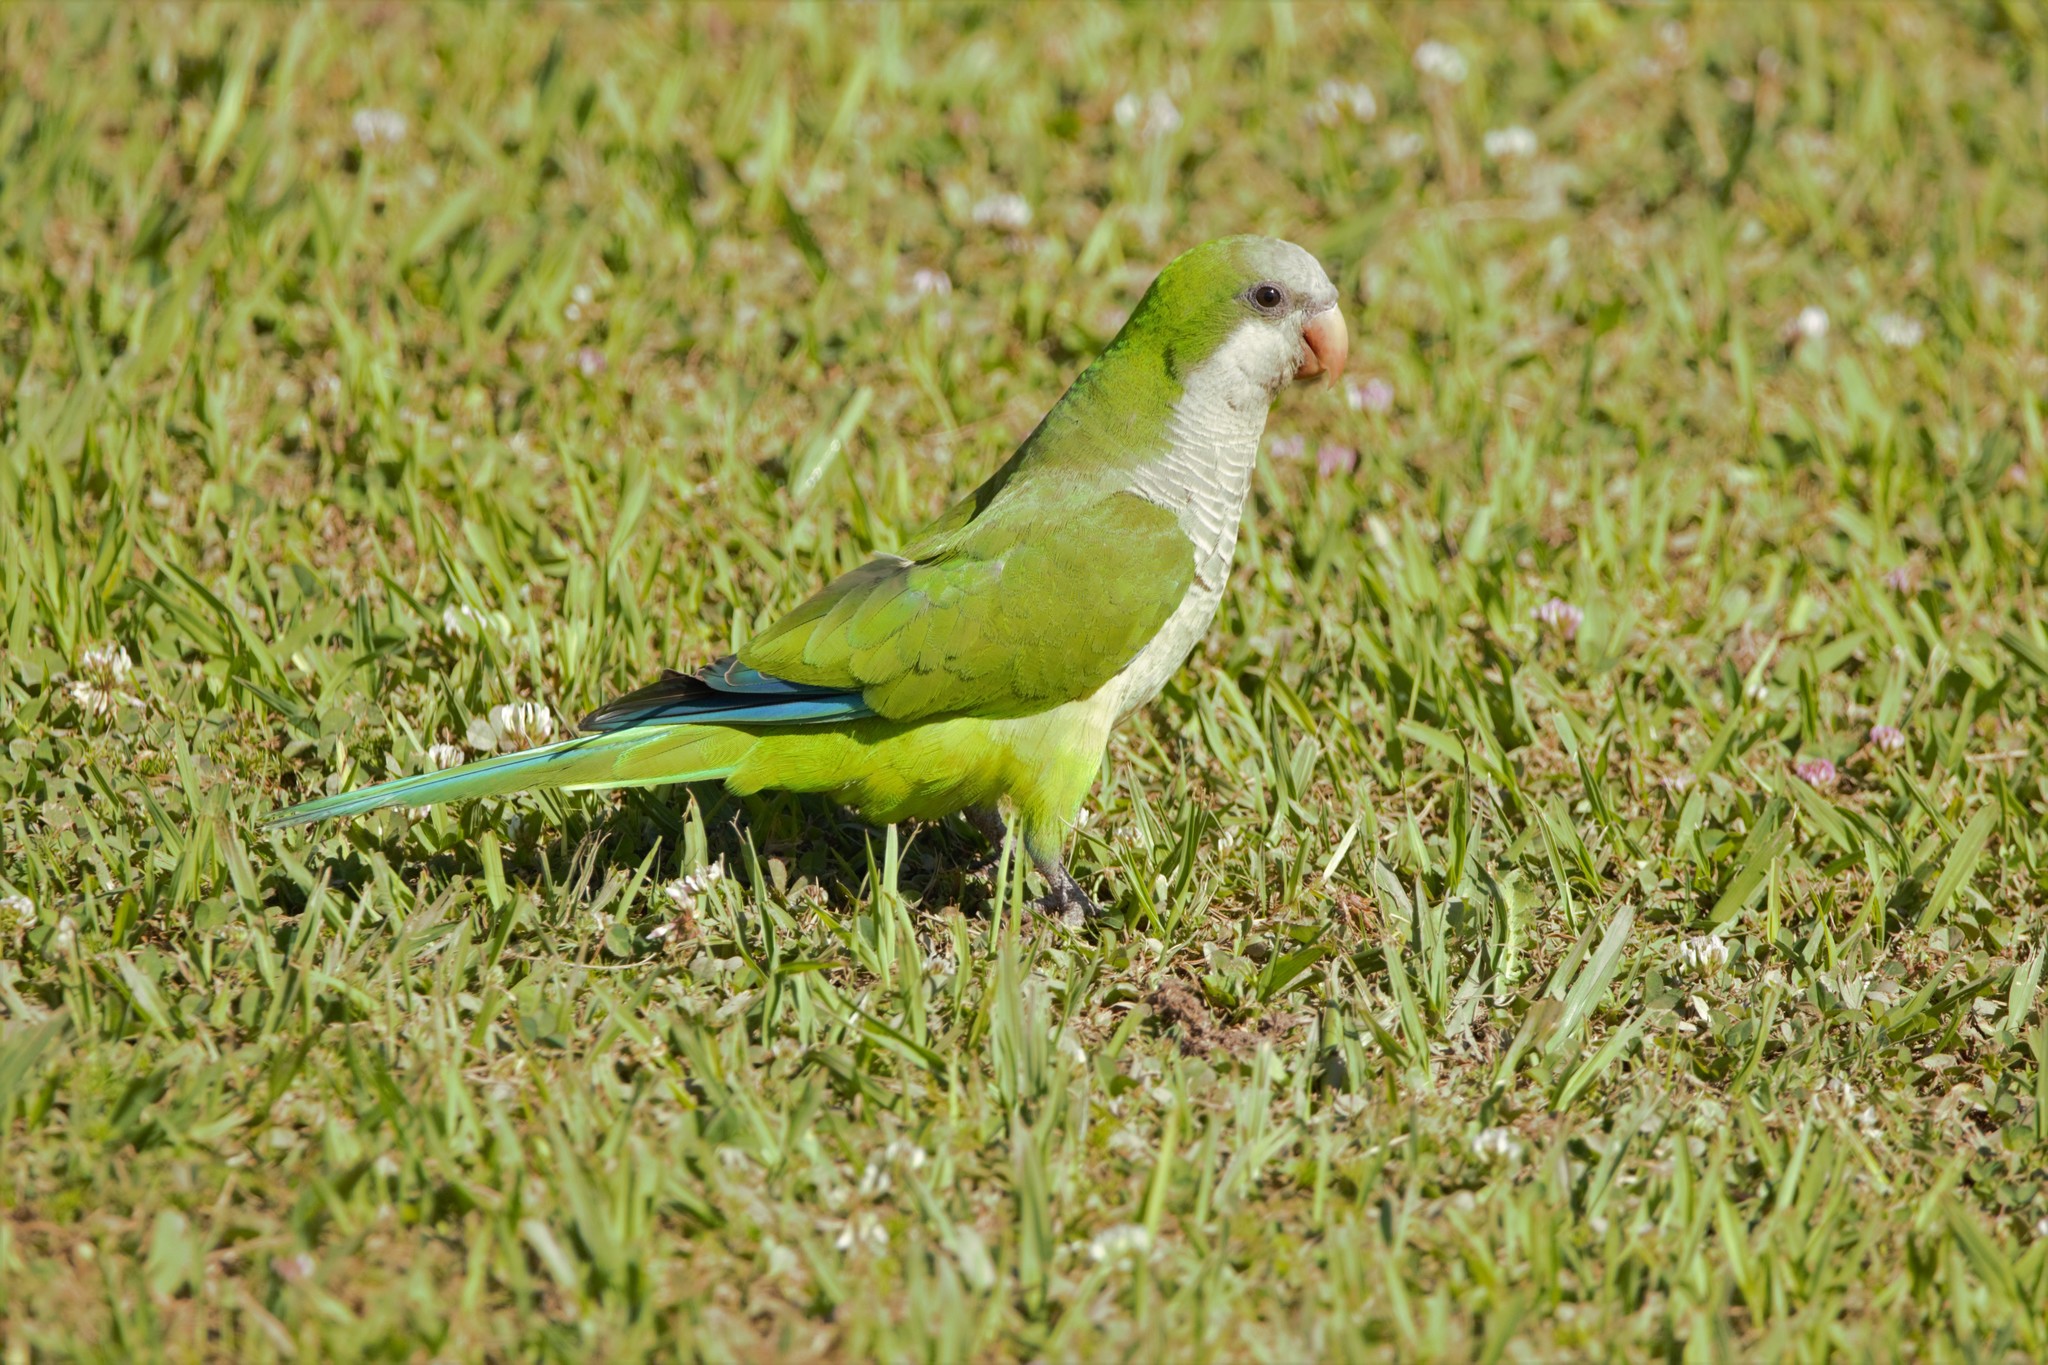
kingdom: Animalia
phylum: Chordata
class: Aves
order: Psittaciformes
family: Psittacidae
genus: Myiopsitta
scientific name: Myiopsitta monachus
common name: Monk parakeet
